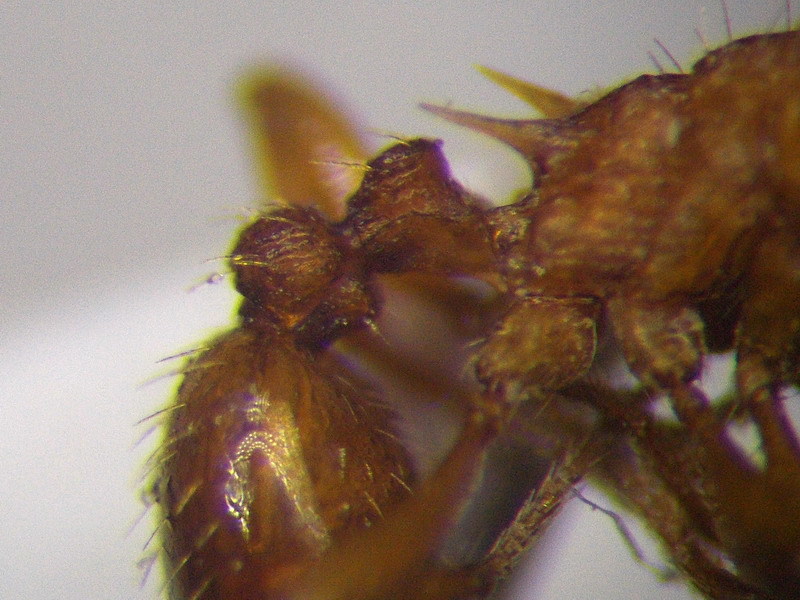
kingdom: Animalia
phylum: Arthropoda
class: Insecta
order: Hymenoptera
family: Formicidae
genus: Myrmica
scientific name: Myrmica scabrinodis
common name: Ant
